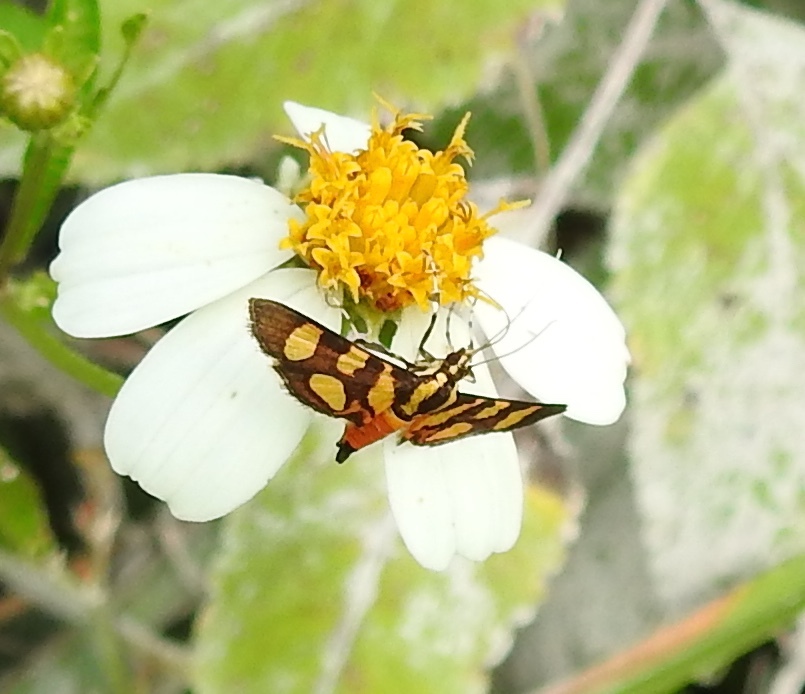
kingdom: Animalia
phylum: Arthropoda
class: Insecta
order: Lepidoptera
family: Crambidae
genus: Syngamia
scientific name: Syngamia florella
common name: Orange-spotted flower moth
